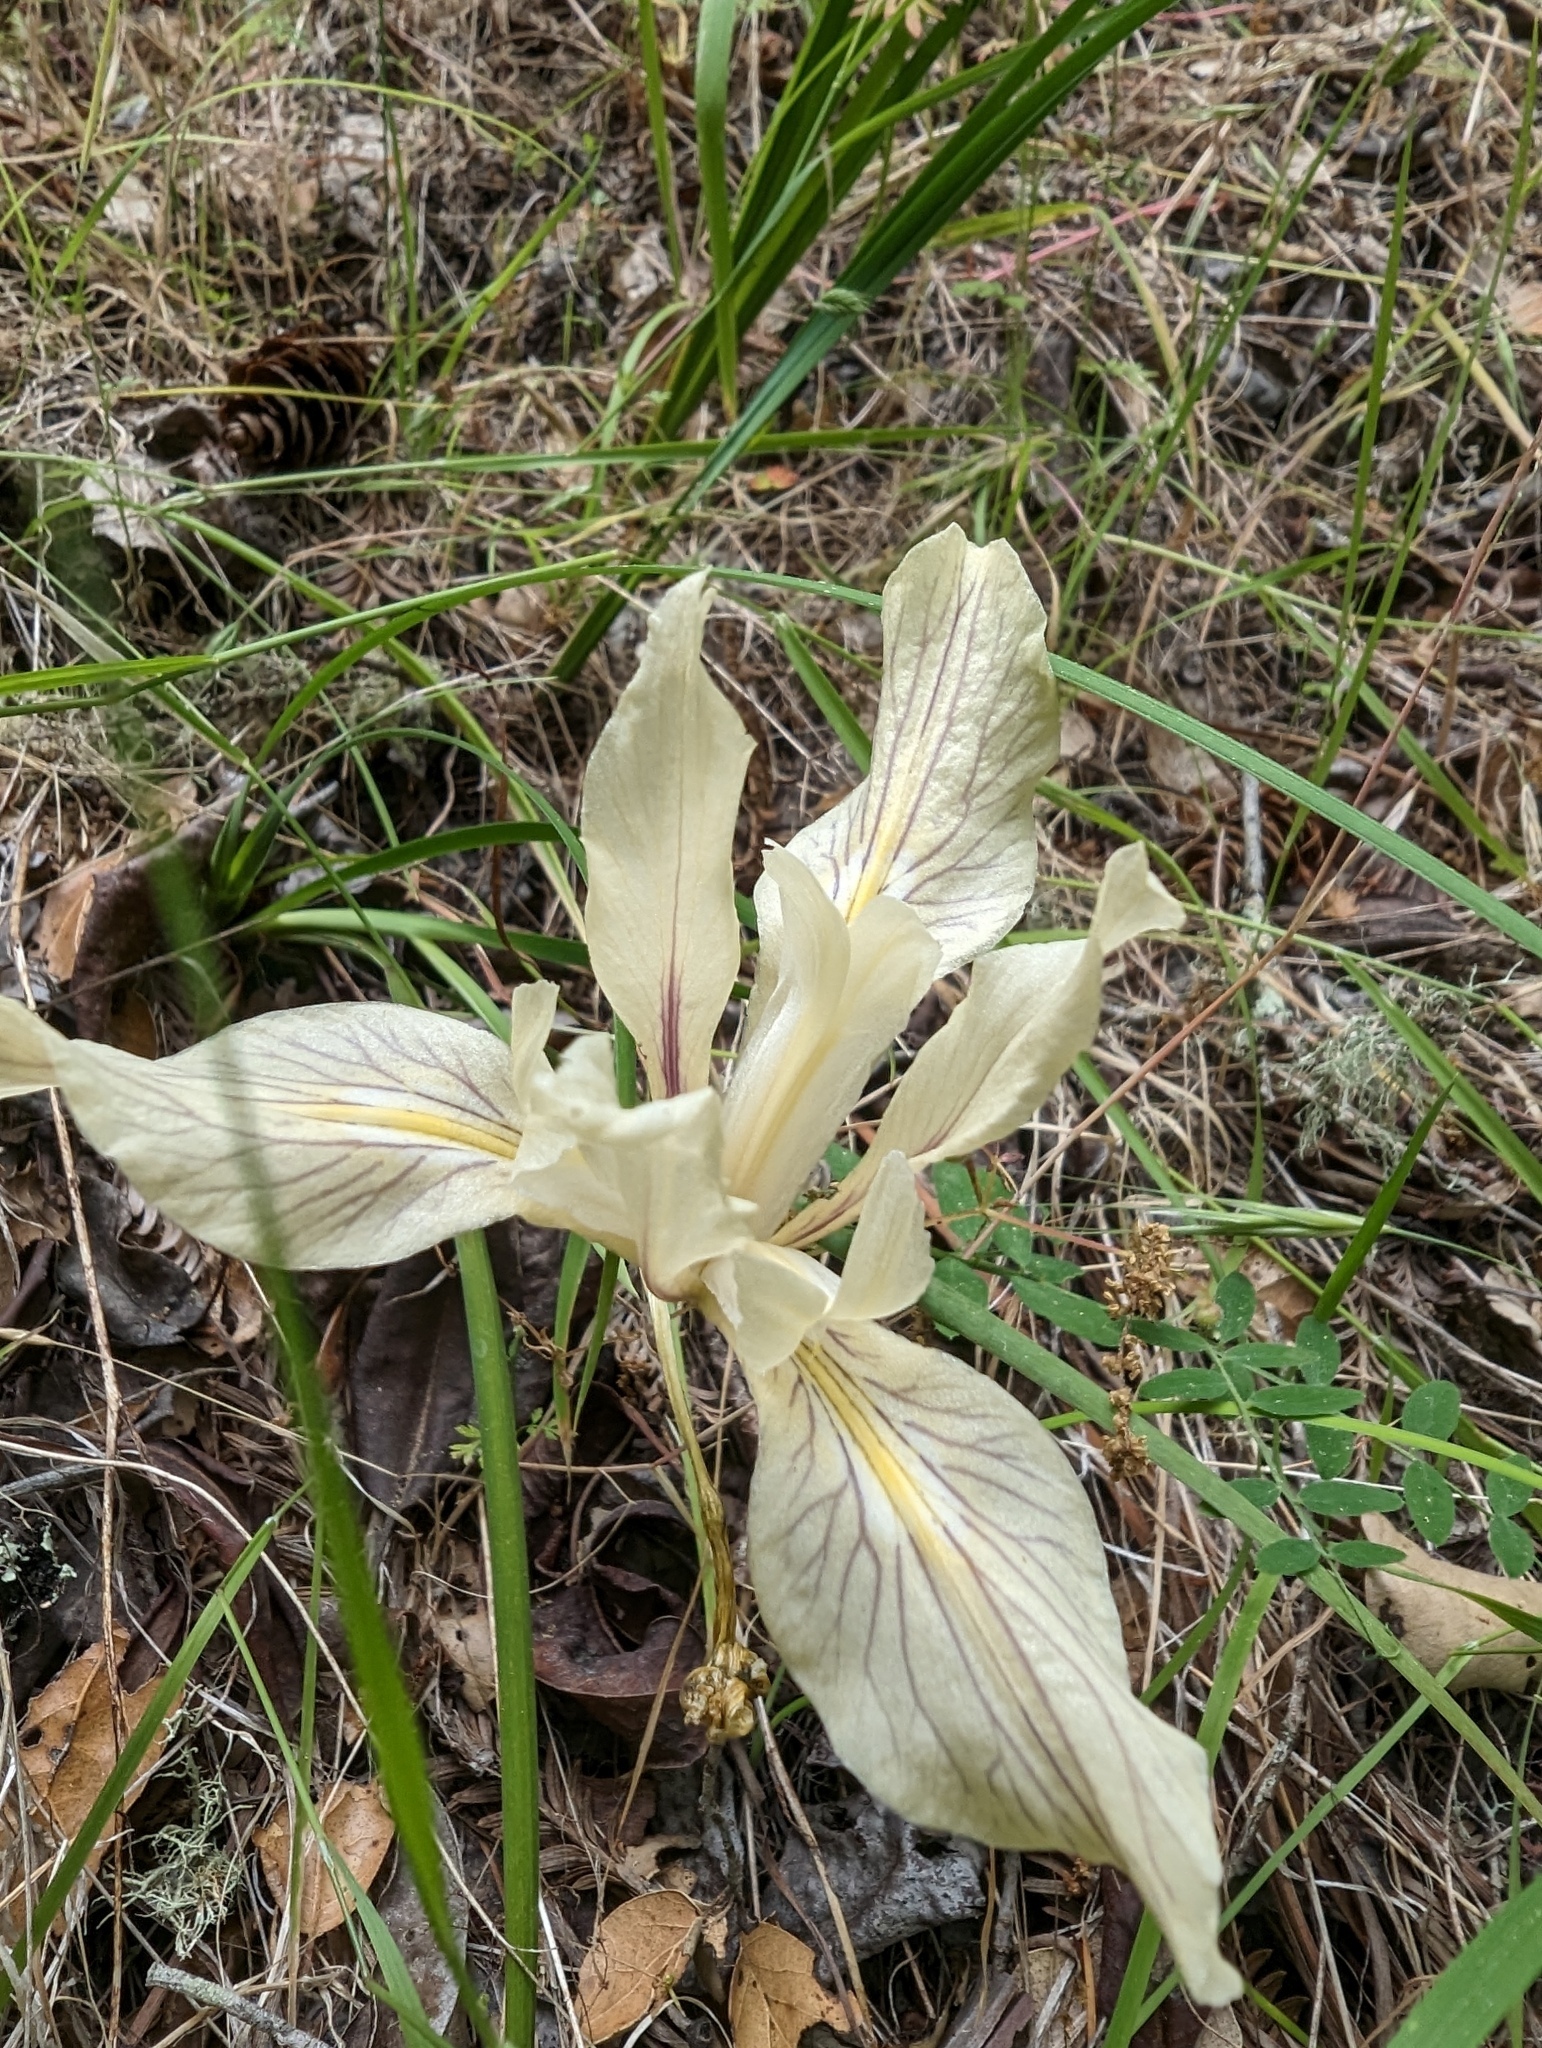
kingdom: Plantae
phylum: Tracheophyta
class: Liliopsida
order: Asparagales
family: Iridaceae
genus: Iris
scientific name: Iris fernaldii
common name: Fernald's iris
